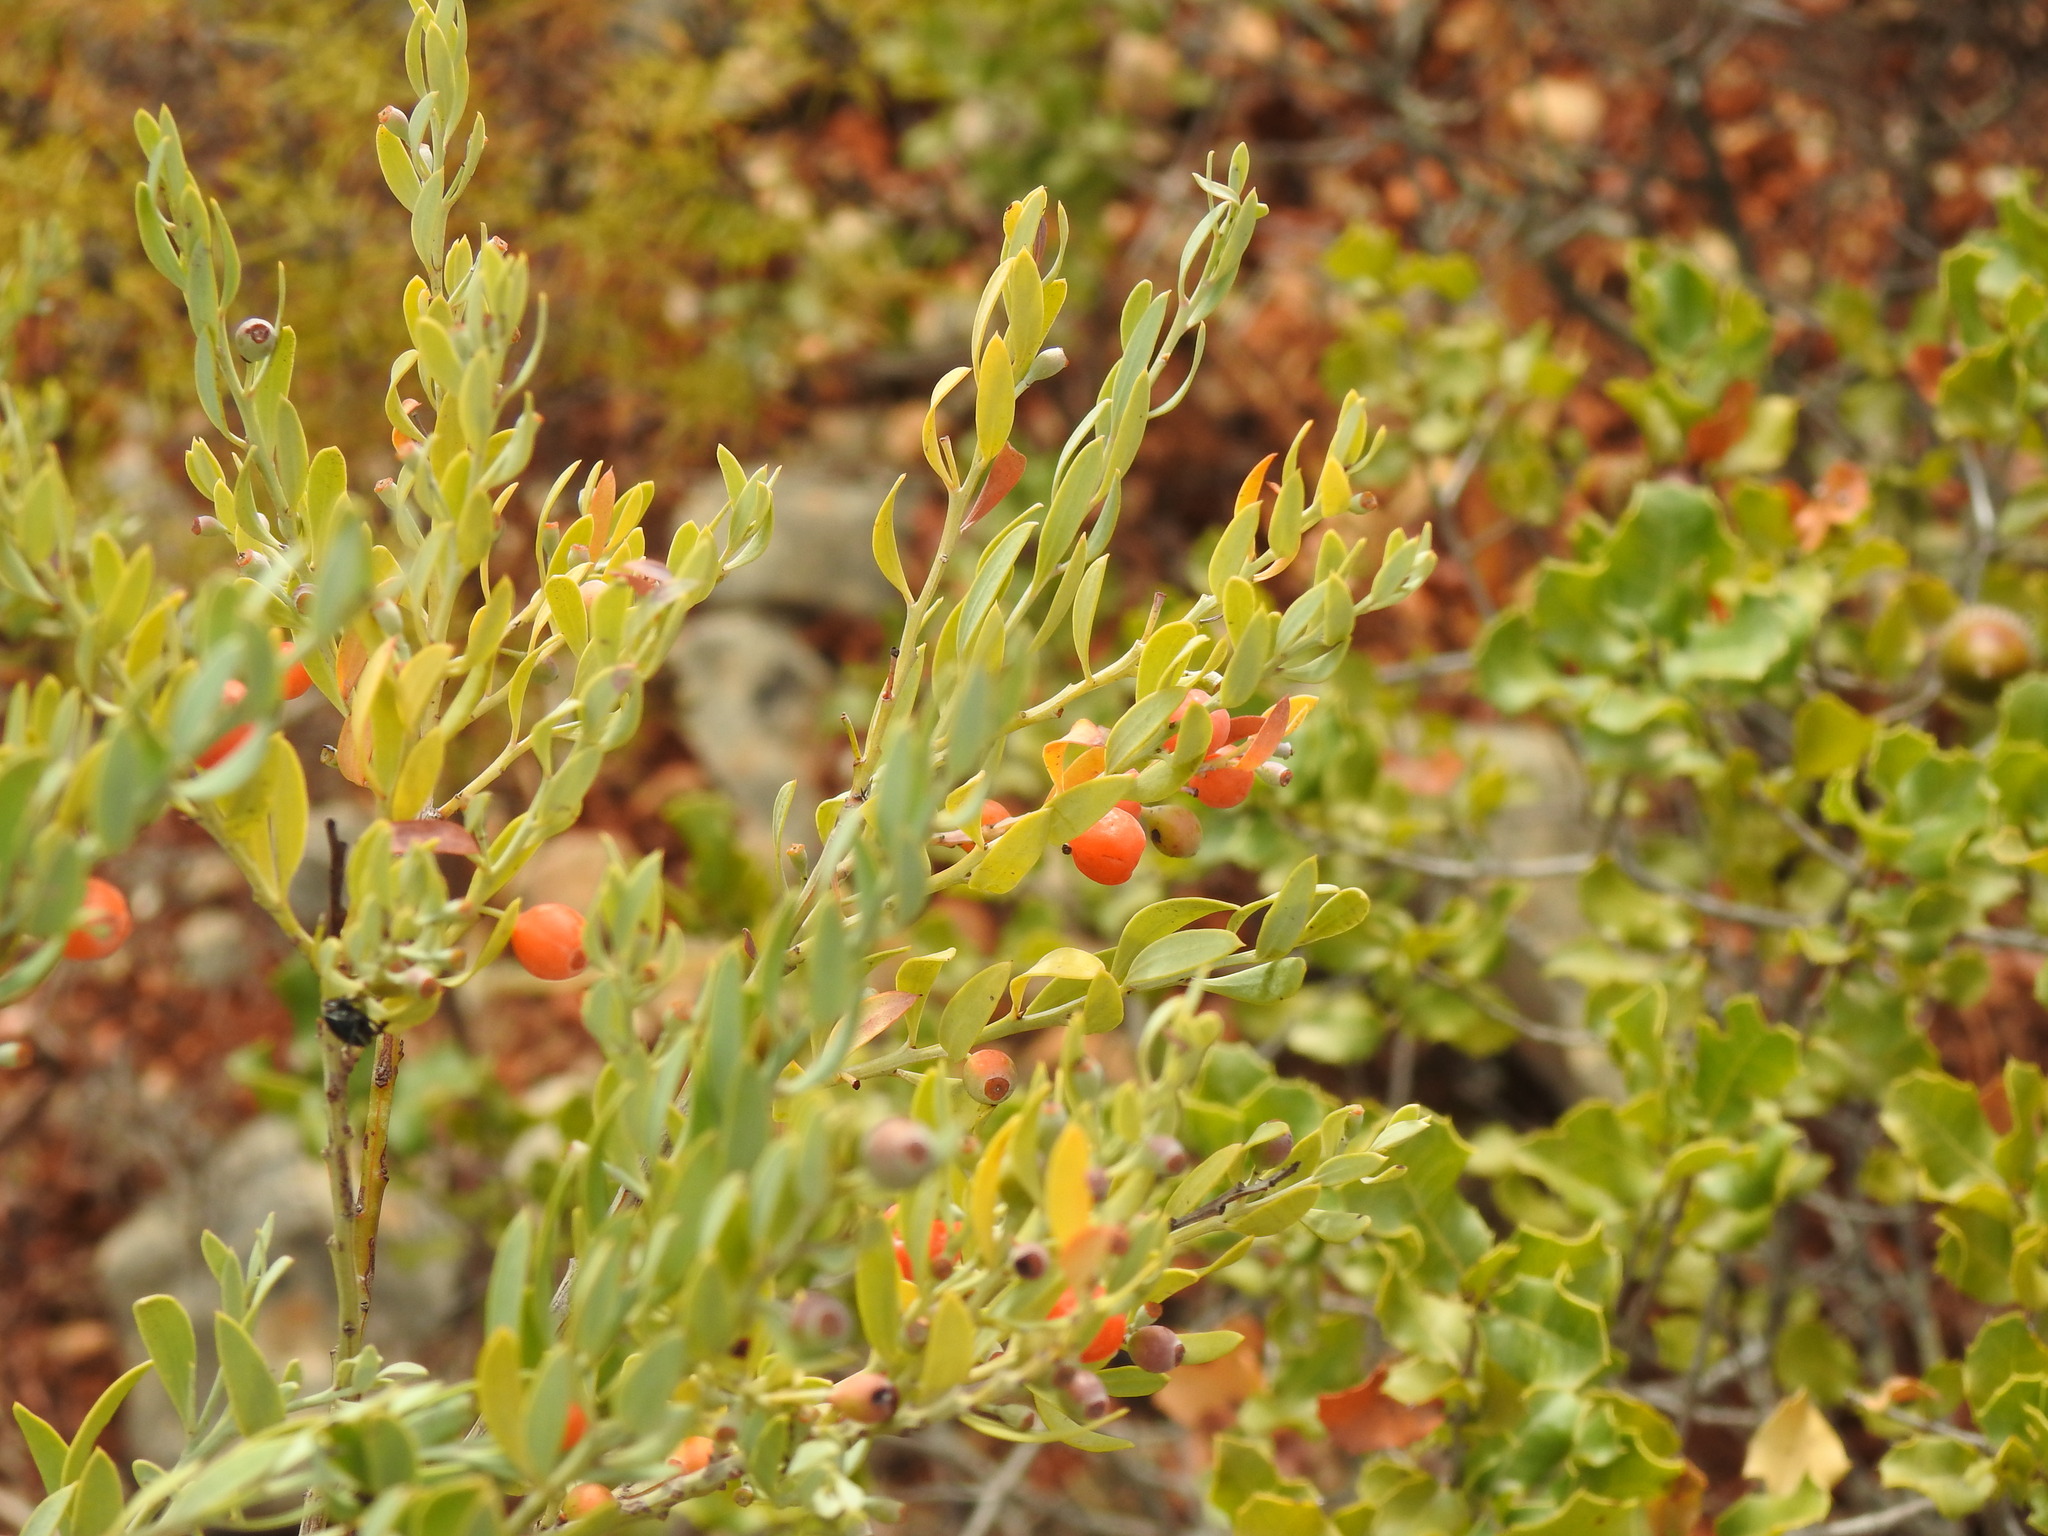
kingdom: Plantae
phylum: Tracheophyta
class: Magnoliopsida
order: Santalales
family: Santalaceae
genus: Osyris
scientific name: Osyris lanceolata
